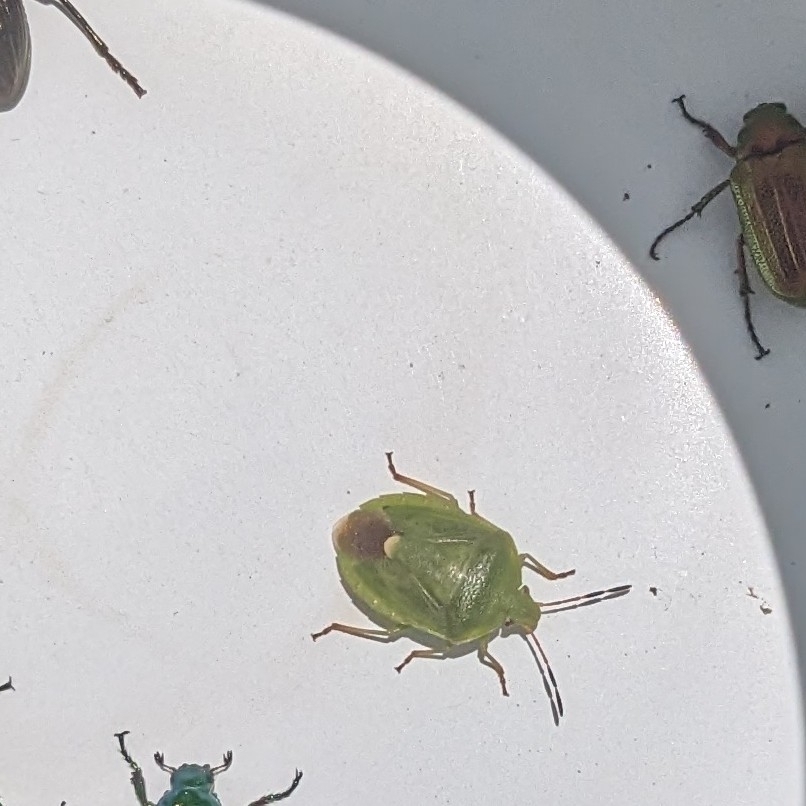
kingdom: Animalia
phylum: Arthropoda
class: Insecta
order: Hemiptera
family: Pentatomidae
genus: Ocirrhoe
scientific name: Ocirrhoe
